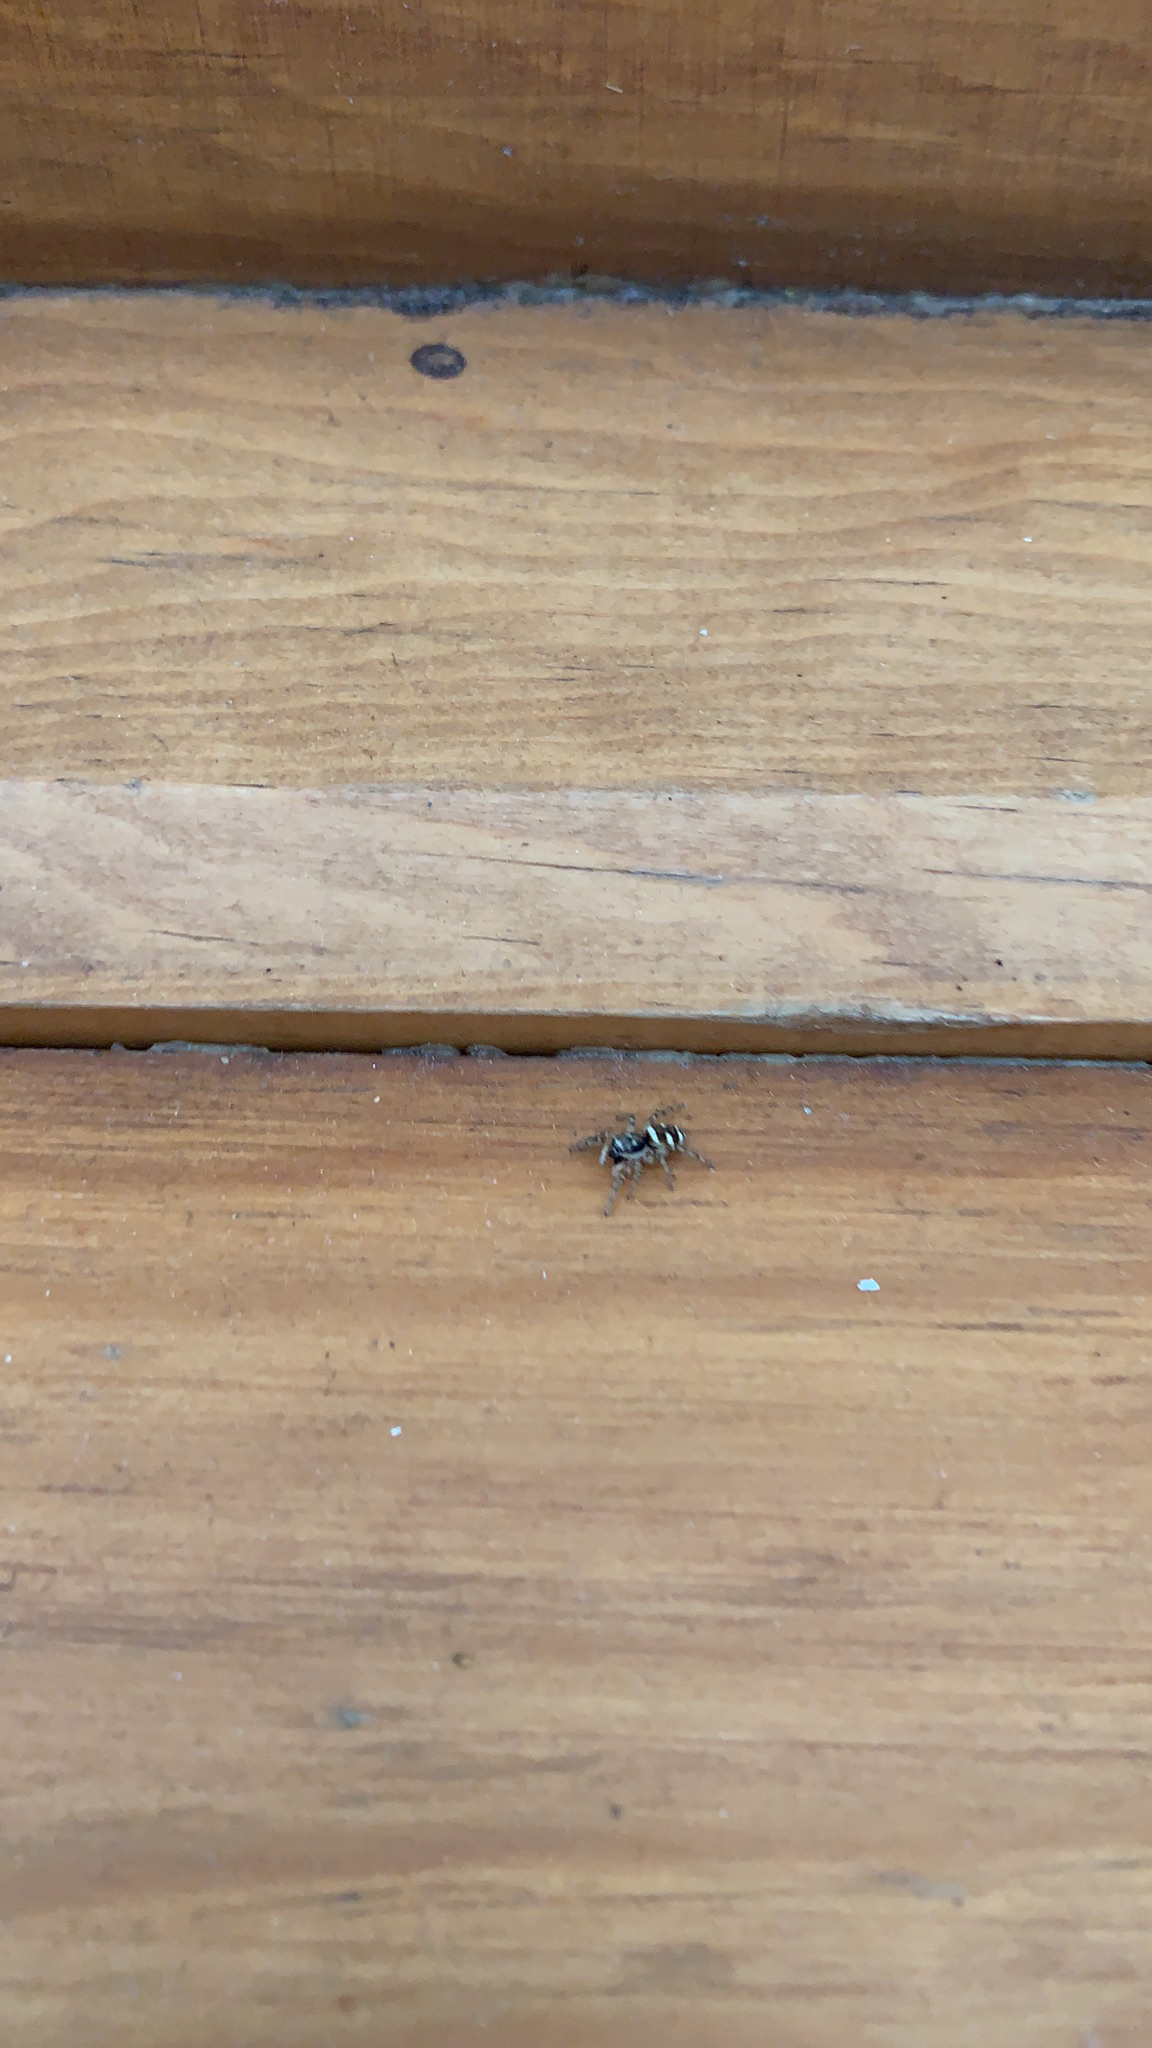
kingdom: Animalia
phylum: Arthropoda
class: Arachnida
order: Araneae
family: Salticidae
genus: Salticus
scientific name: Salticus scenicus
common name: Zebra jumper
